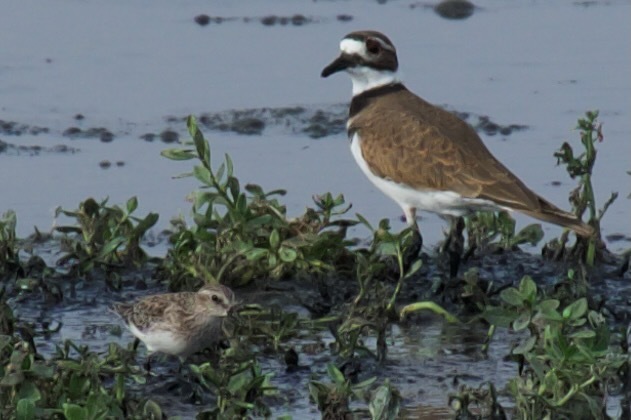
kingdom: Animalia
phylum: Chordata
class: Aves
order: Charadriiformes
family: Charadriidae
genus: Charadrius
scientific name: Charadrius vociferus
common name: Killdeer
